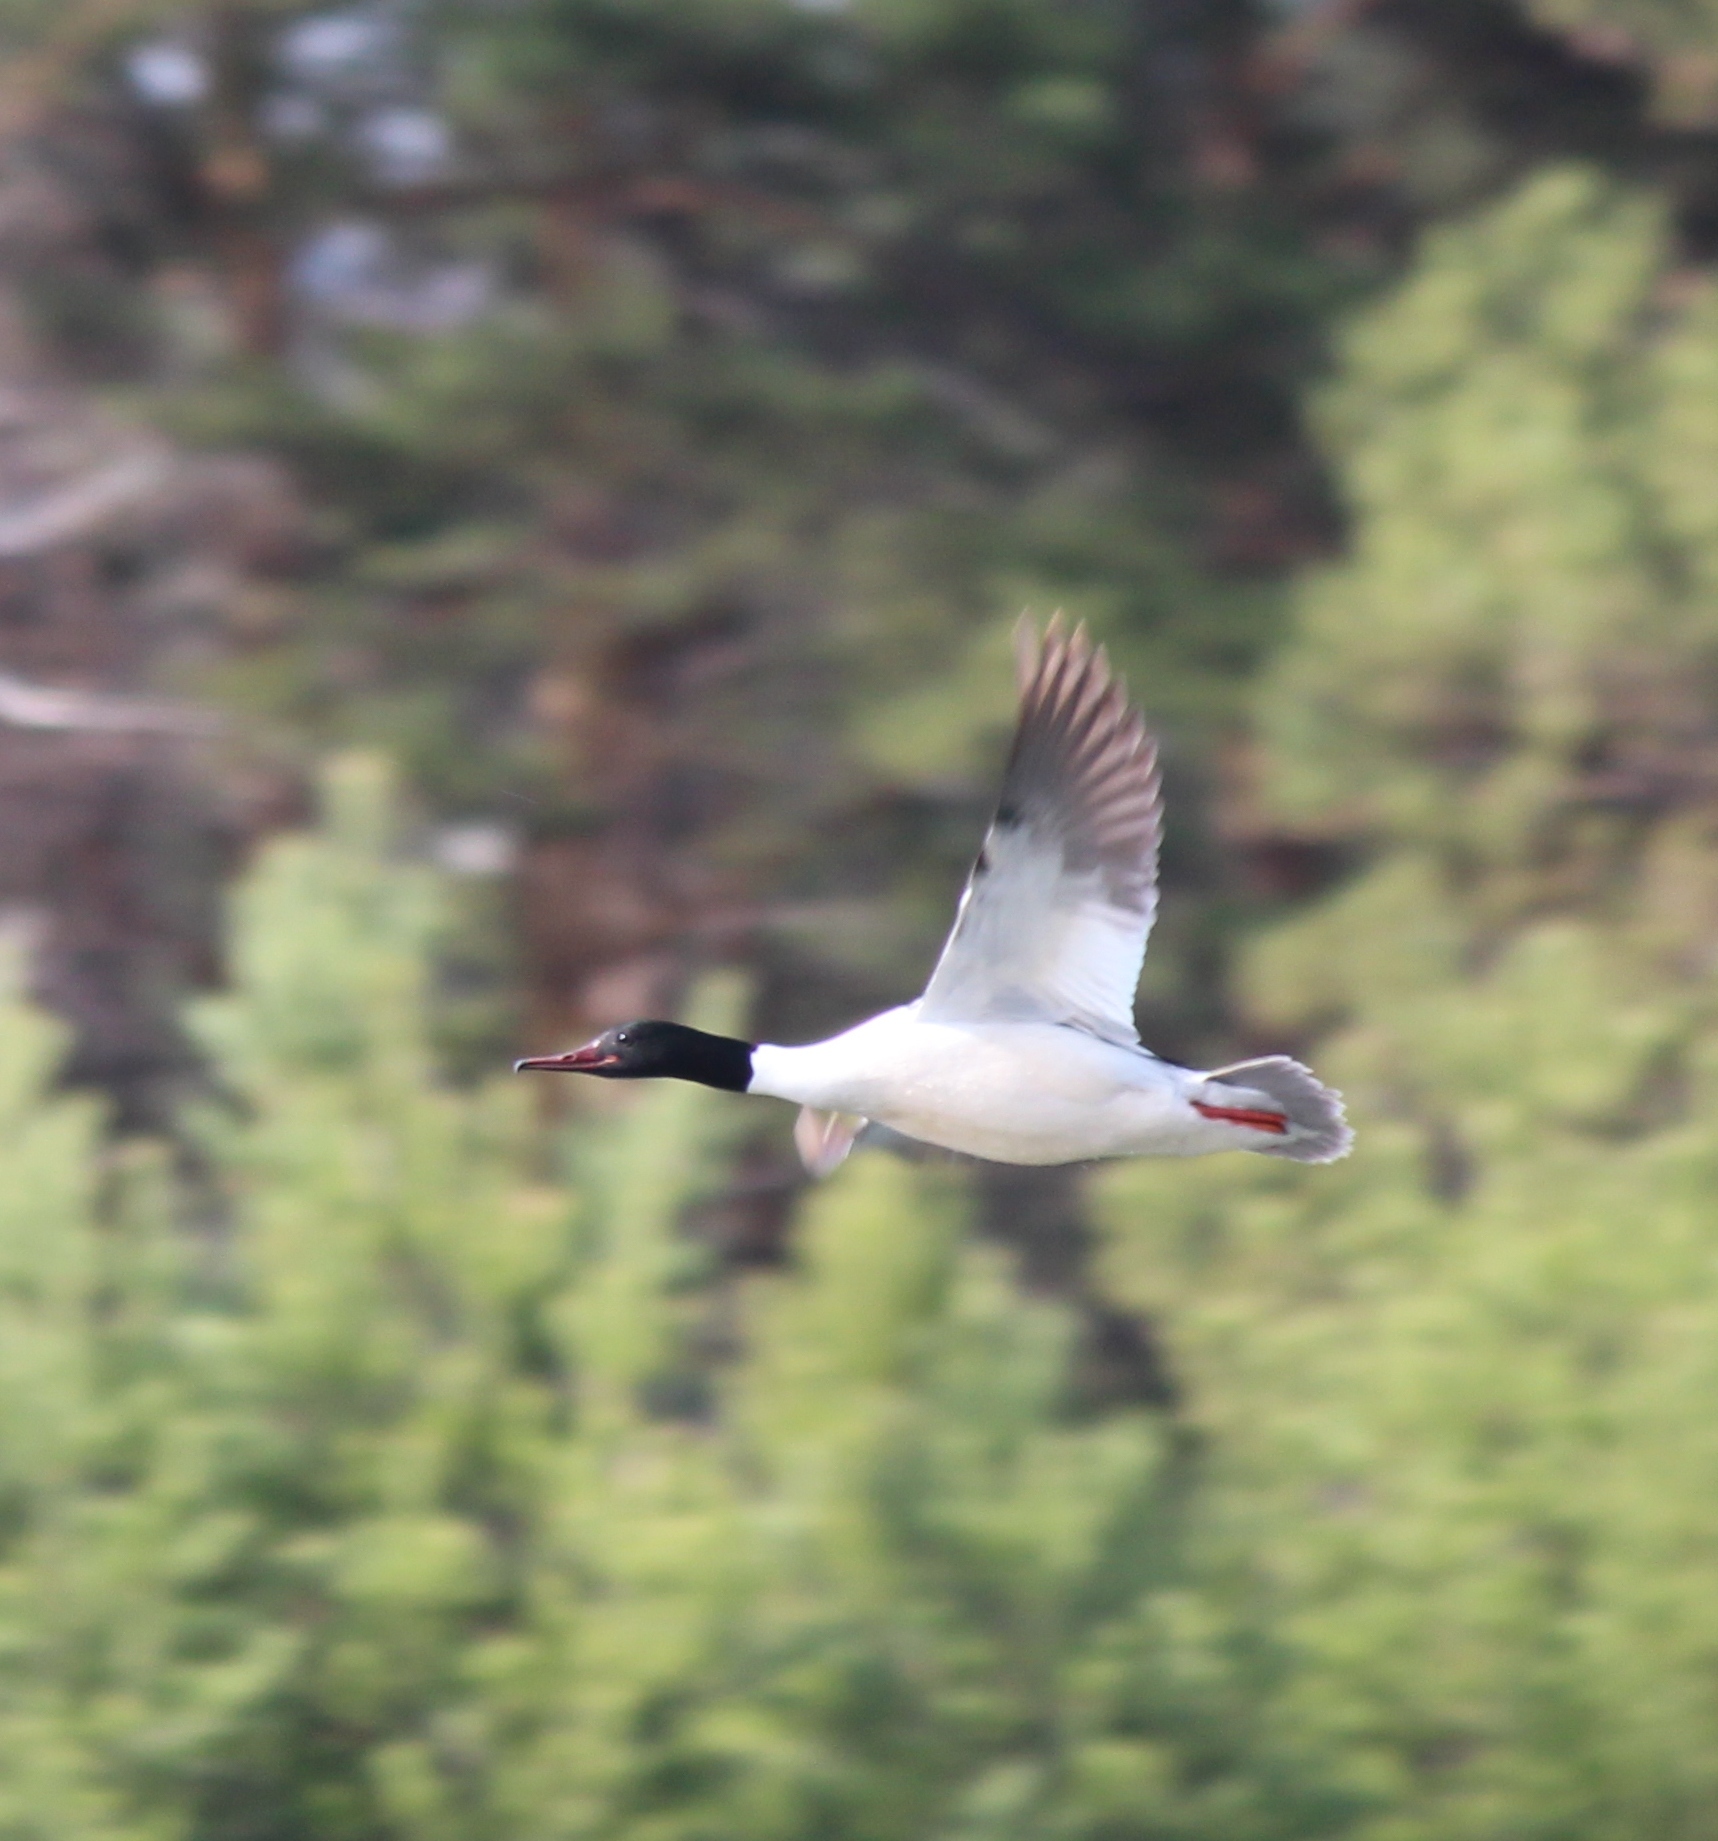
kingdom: Animalia
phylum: Chordata
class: Aves
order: Anseriformes
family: Anatidae
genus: Mergus
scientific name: Mergus merganser
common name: Common merganser
